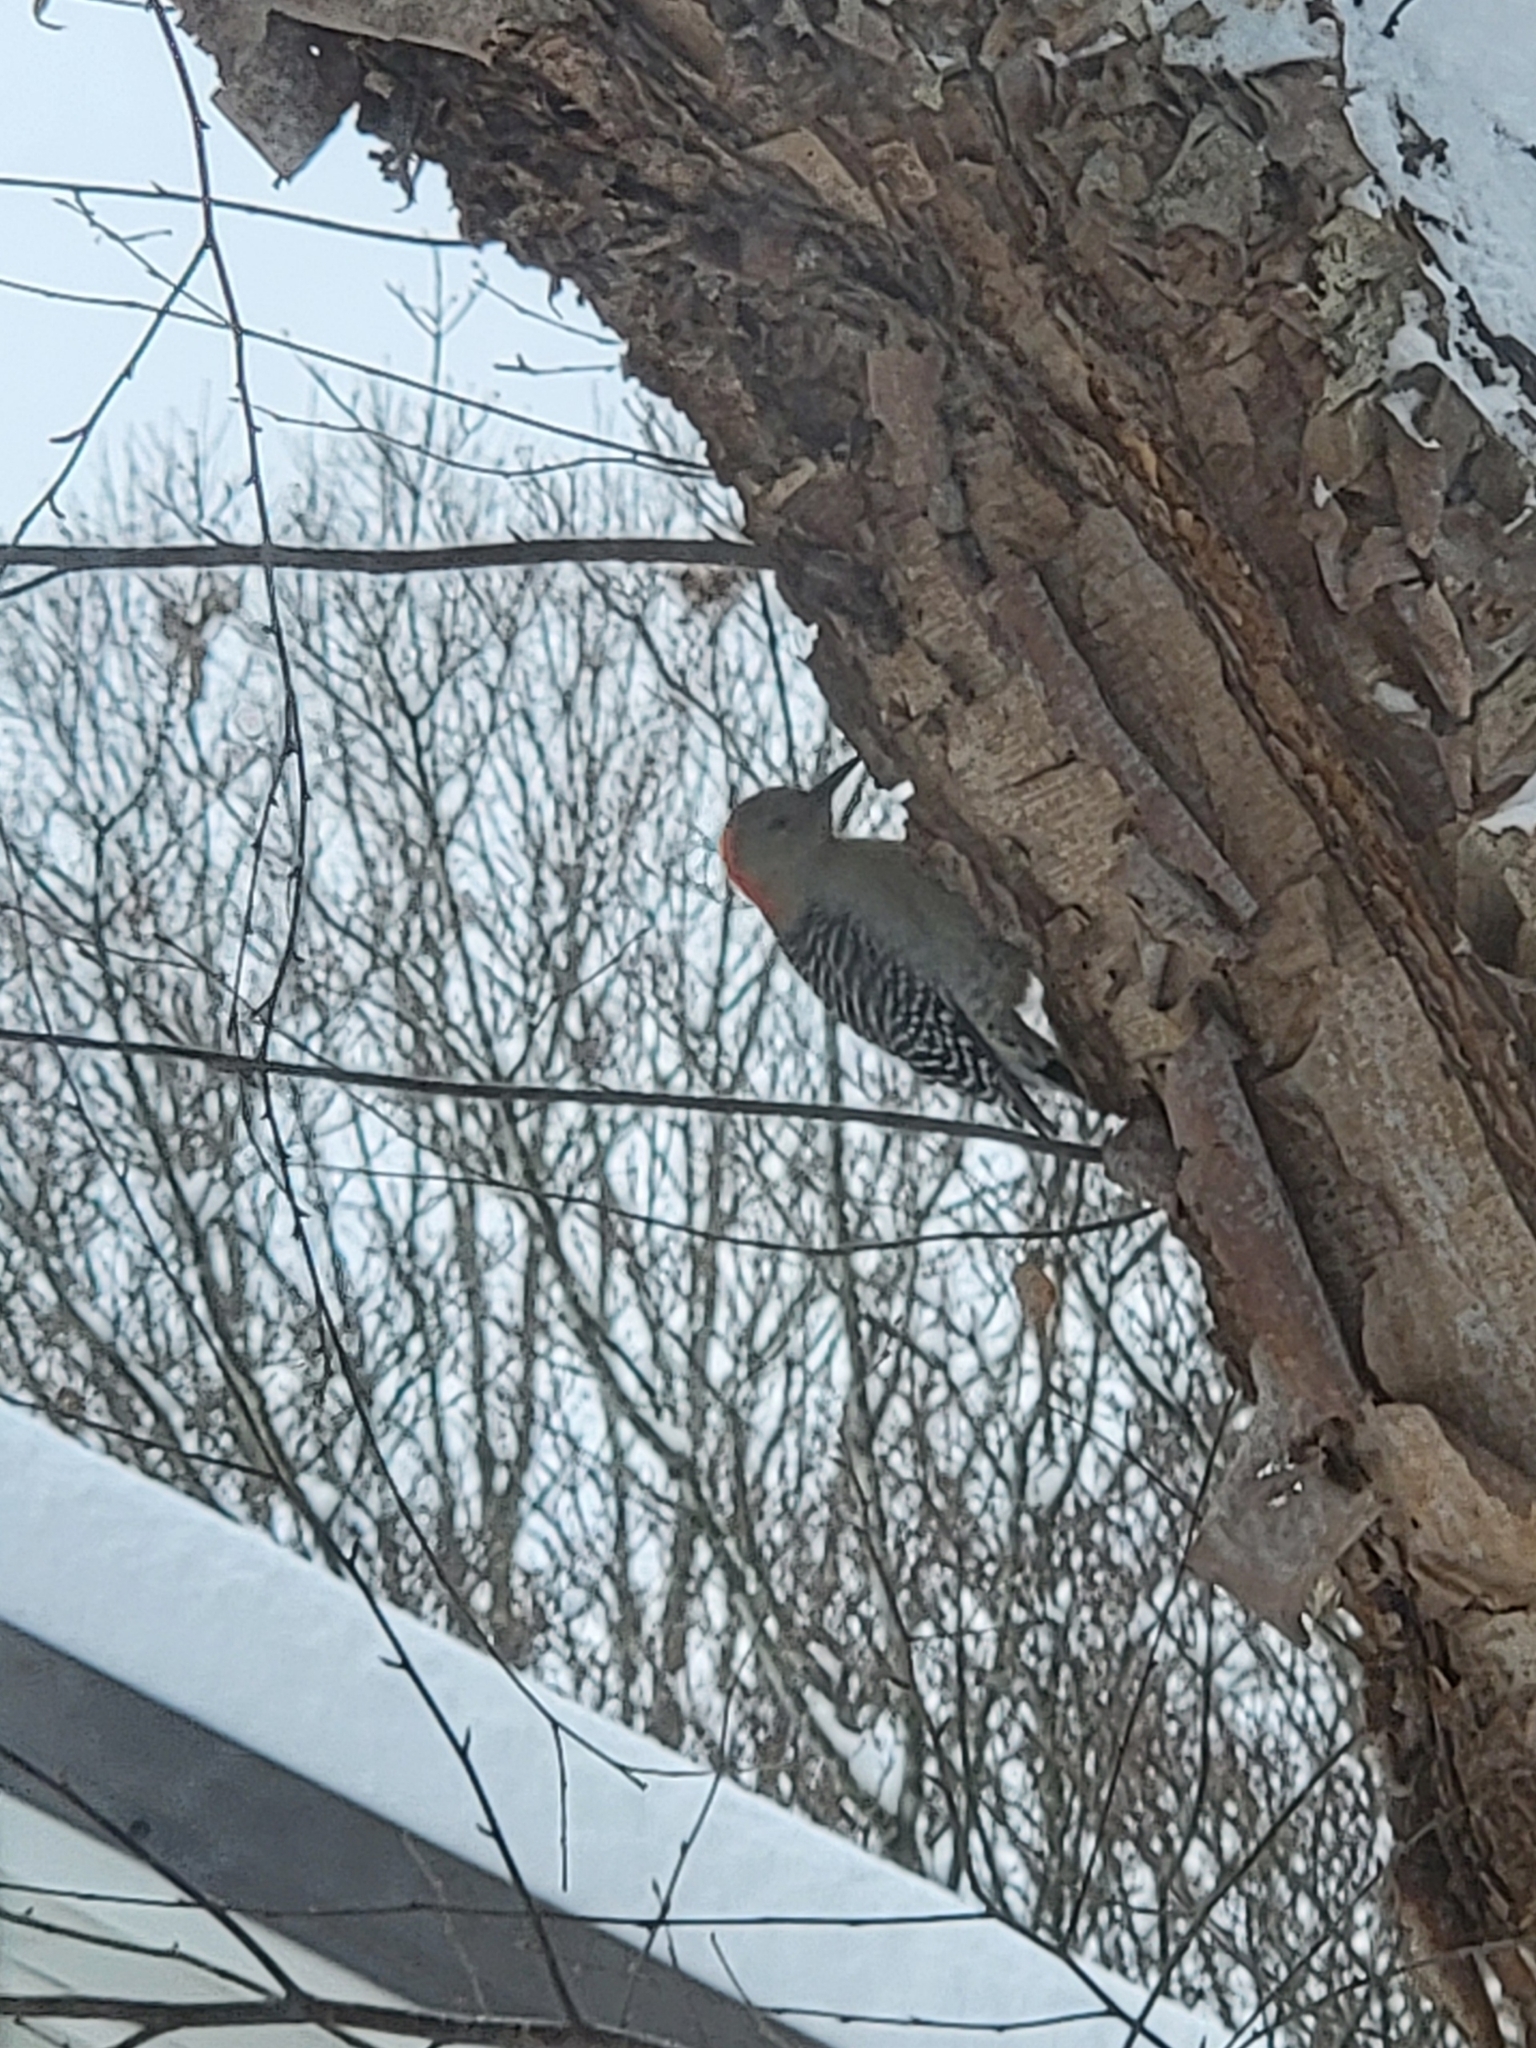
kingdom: Animalia
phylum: Chordata
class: Aves
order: Piciformes
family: Picidae
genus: Melanerpes
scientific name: Melanerpes carolinus
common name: Red-bellied woodpecker
